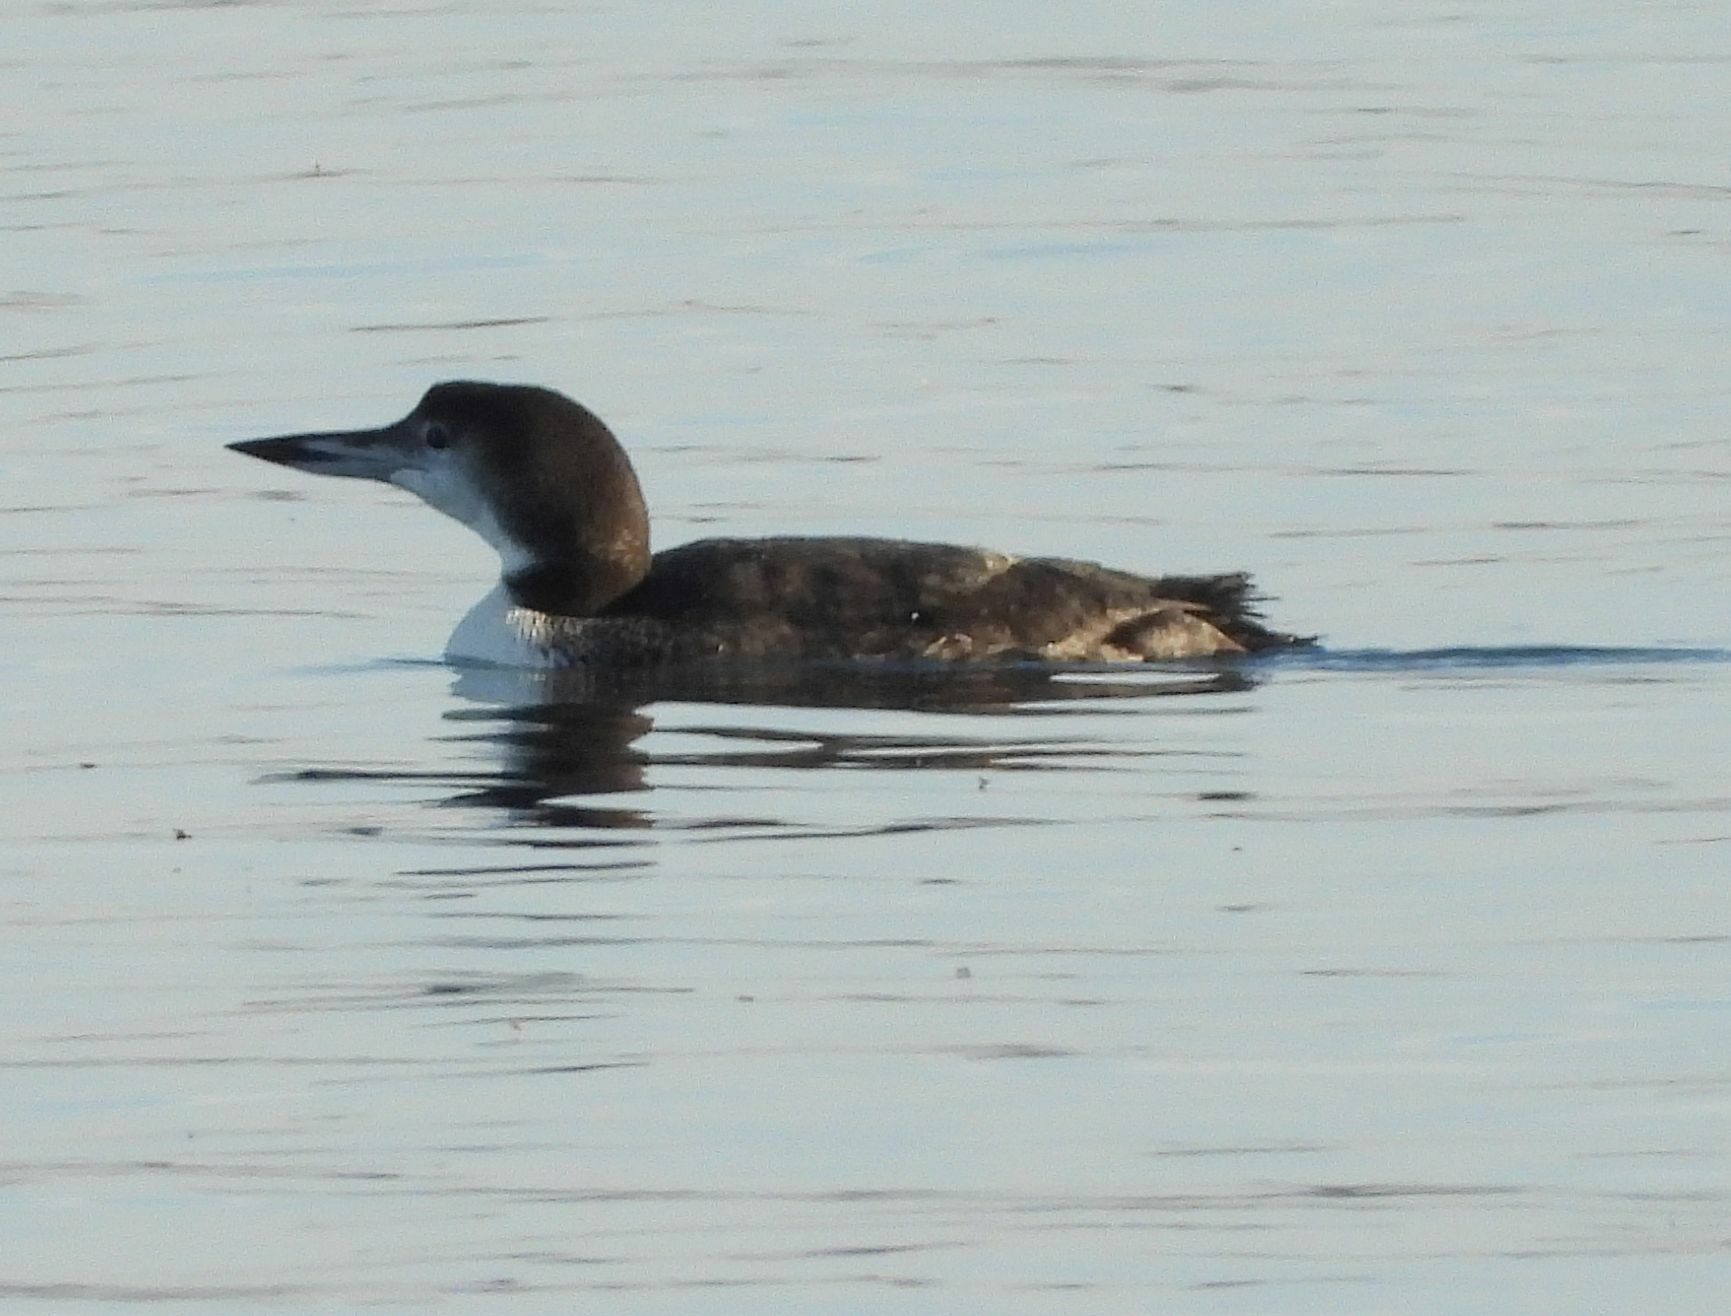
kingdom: Animalia
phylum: Chordata
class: Aves
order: Gaviiformes
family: Gaviidae
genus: Gavia
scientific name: Gavia immer
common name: Common loon
